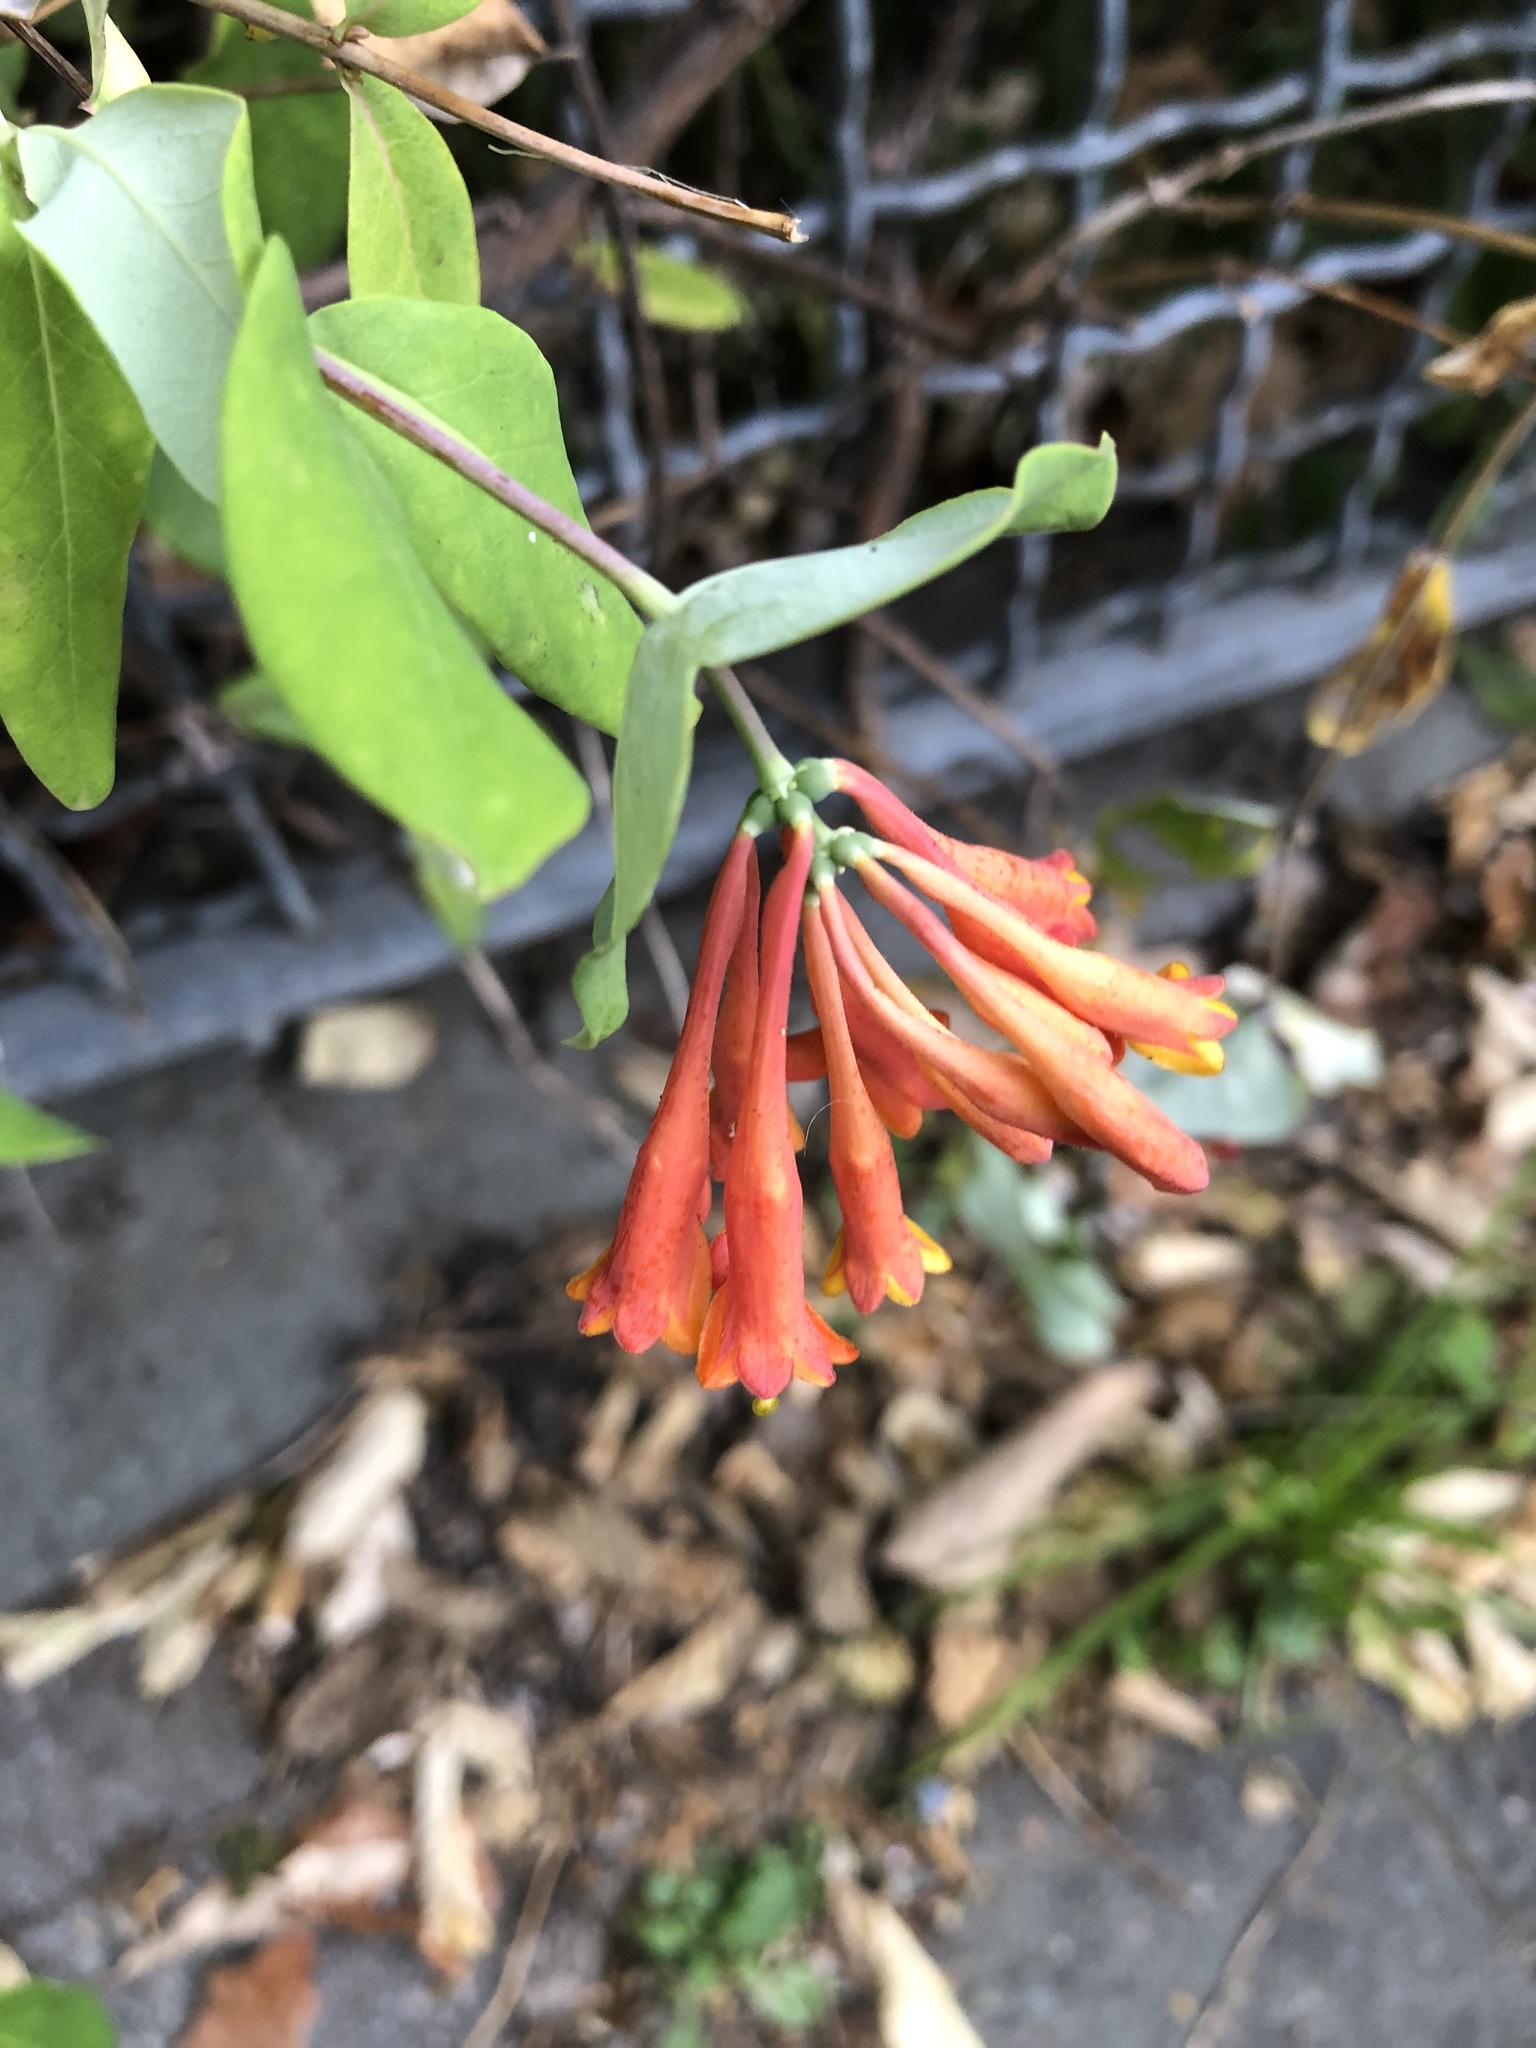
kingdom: Plantae
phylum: Tracheophyta
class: Magnoliopsida
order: Dipsacales
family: Caprifoliaceae
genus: Lonicera
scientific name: Lonicera sempervirens
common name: Coral honeysuckle
